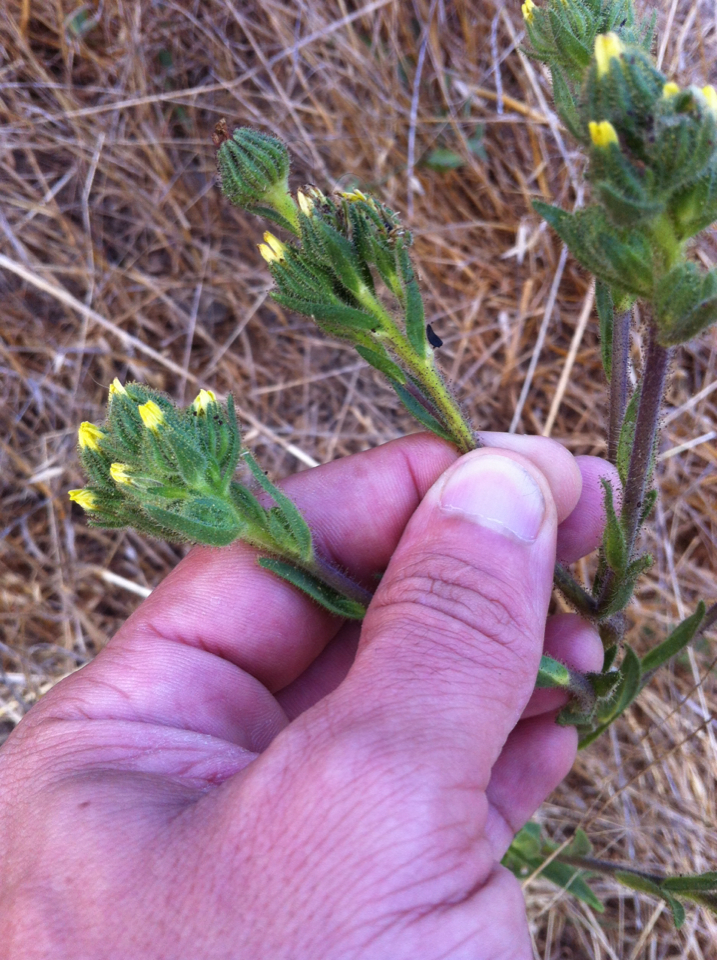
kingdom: Plantae
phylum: Tracheophyta
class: Magnoliopsida
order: Asterales
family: Asteraceae
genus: Madia
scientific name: Madia sativa
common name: Coast tarweed
